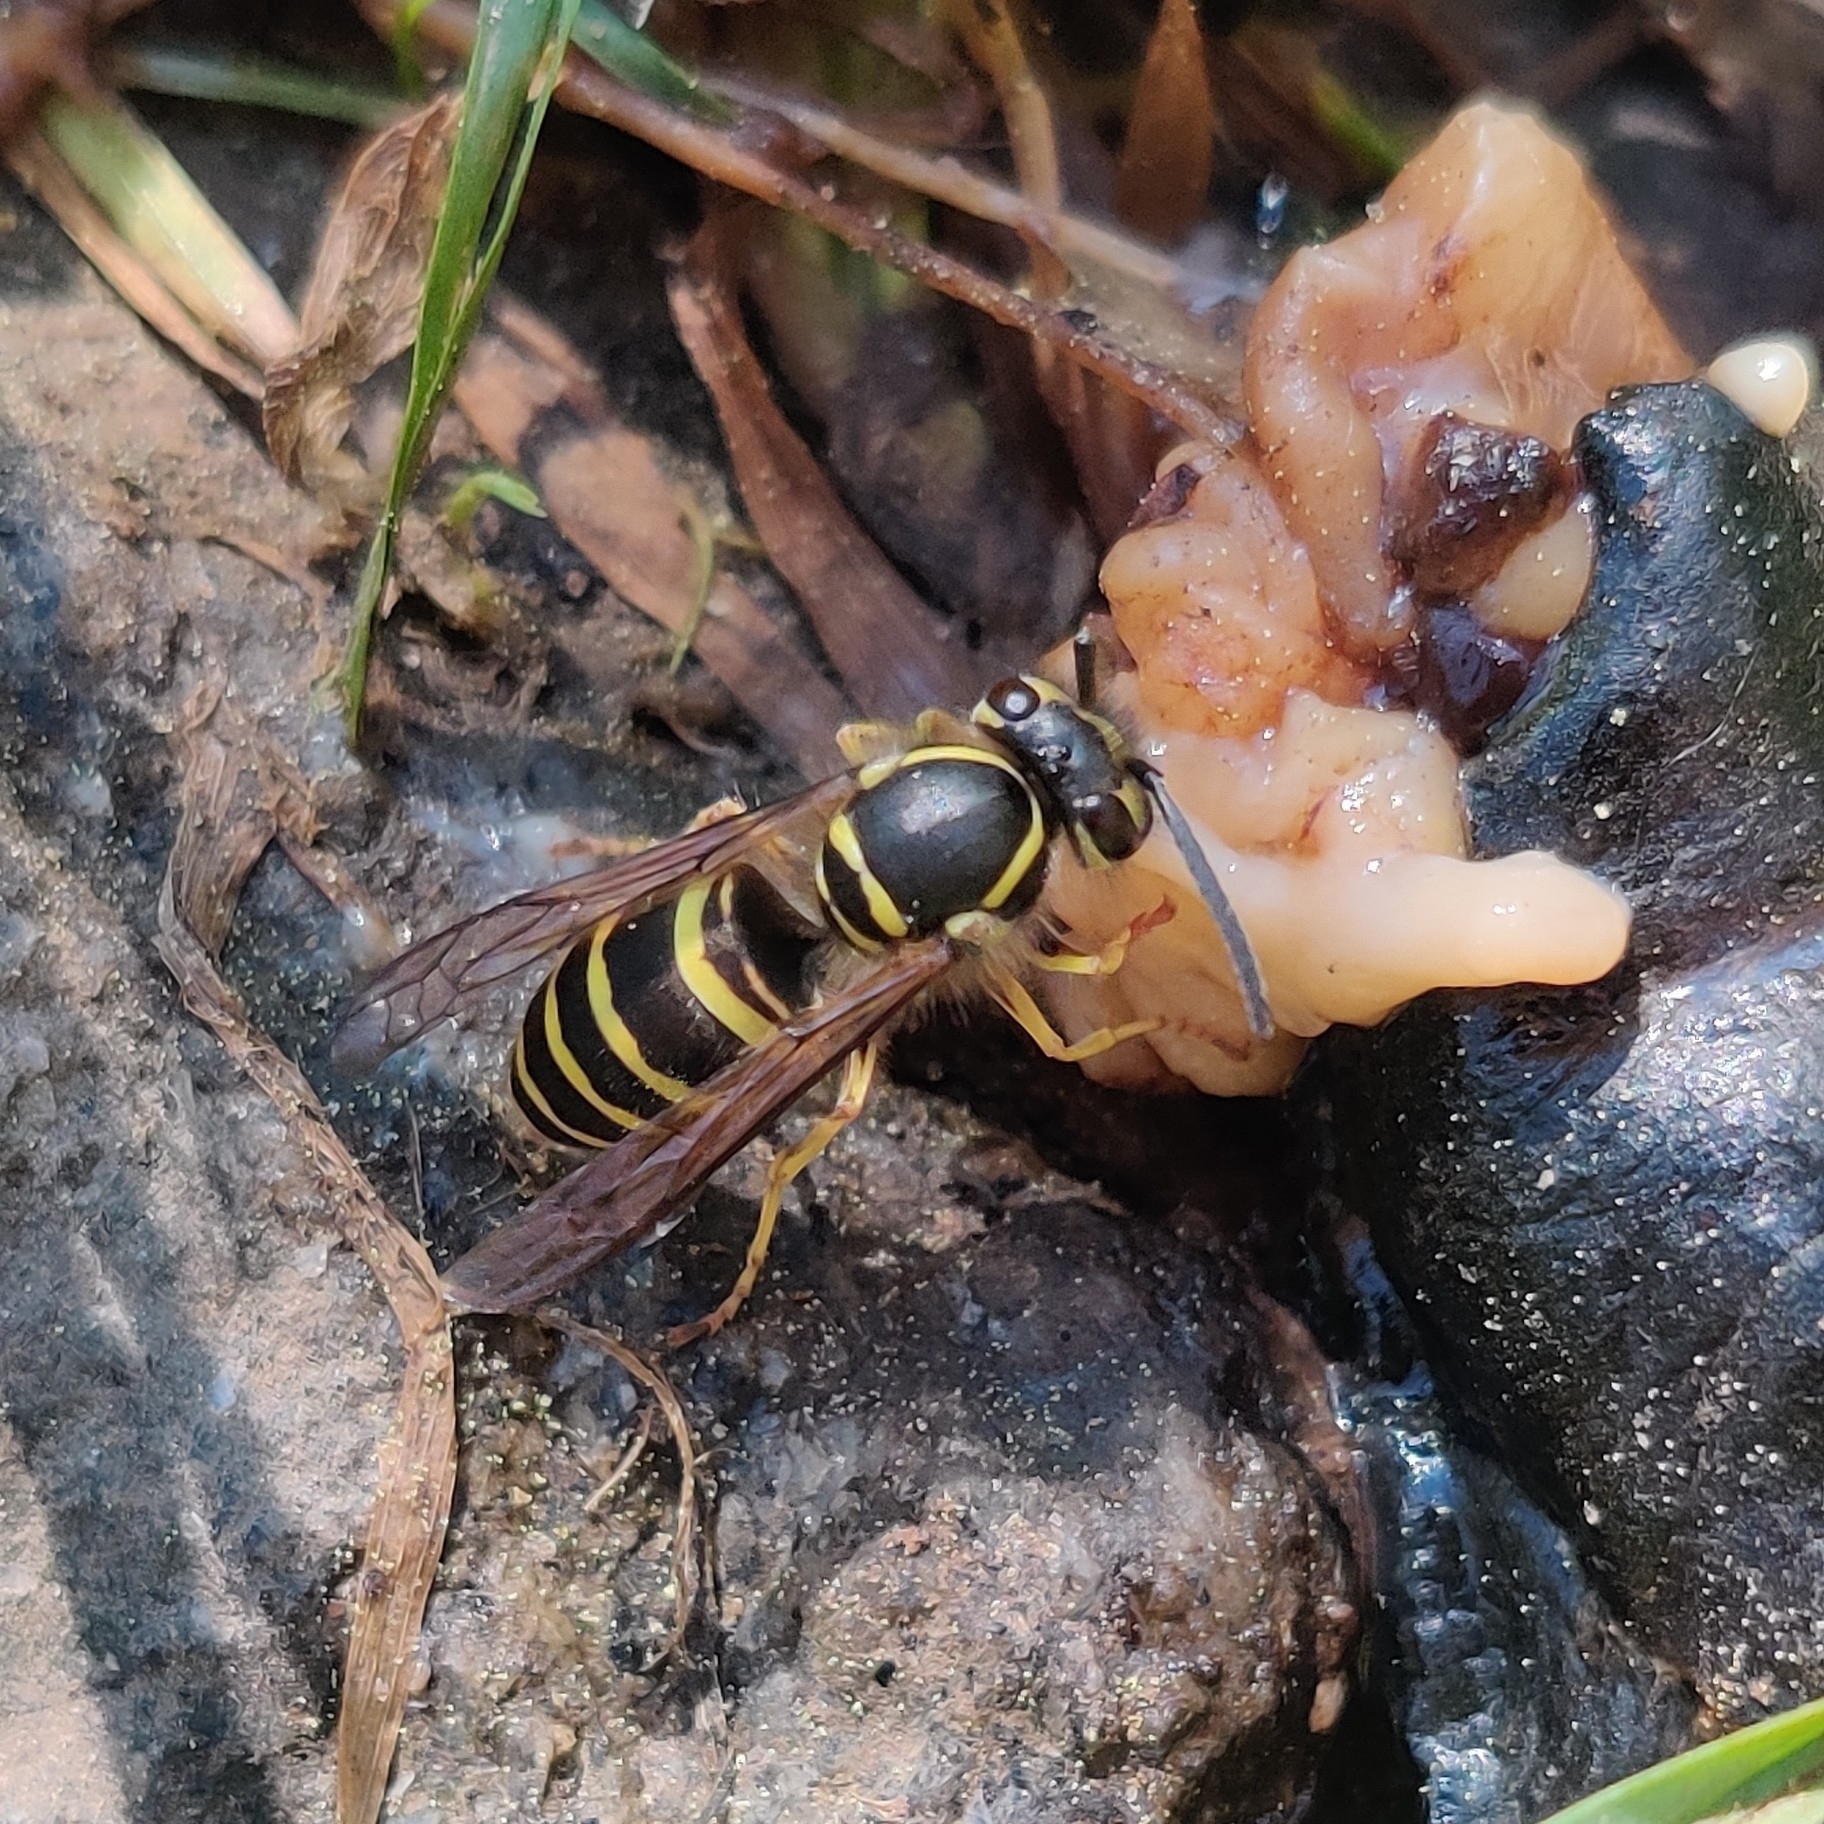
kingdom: Animalia
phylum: Arthropoda
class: Insecta
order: Hymenoptera
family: Vespidae
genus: Vespula
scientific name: Vespula flaviceps
